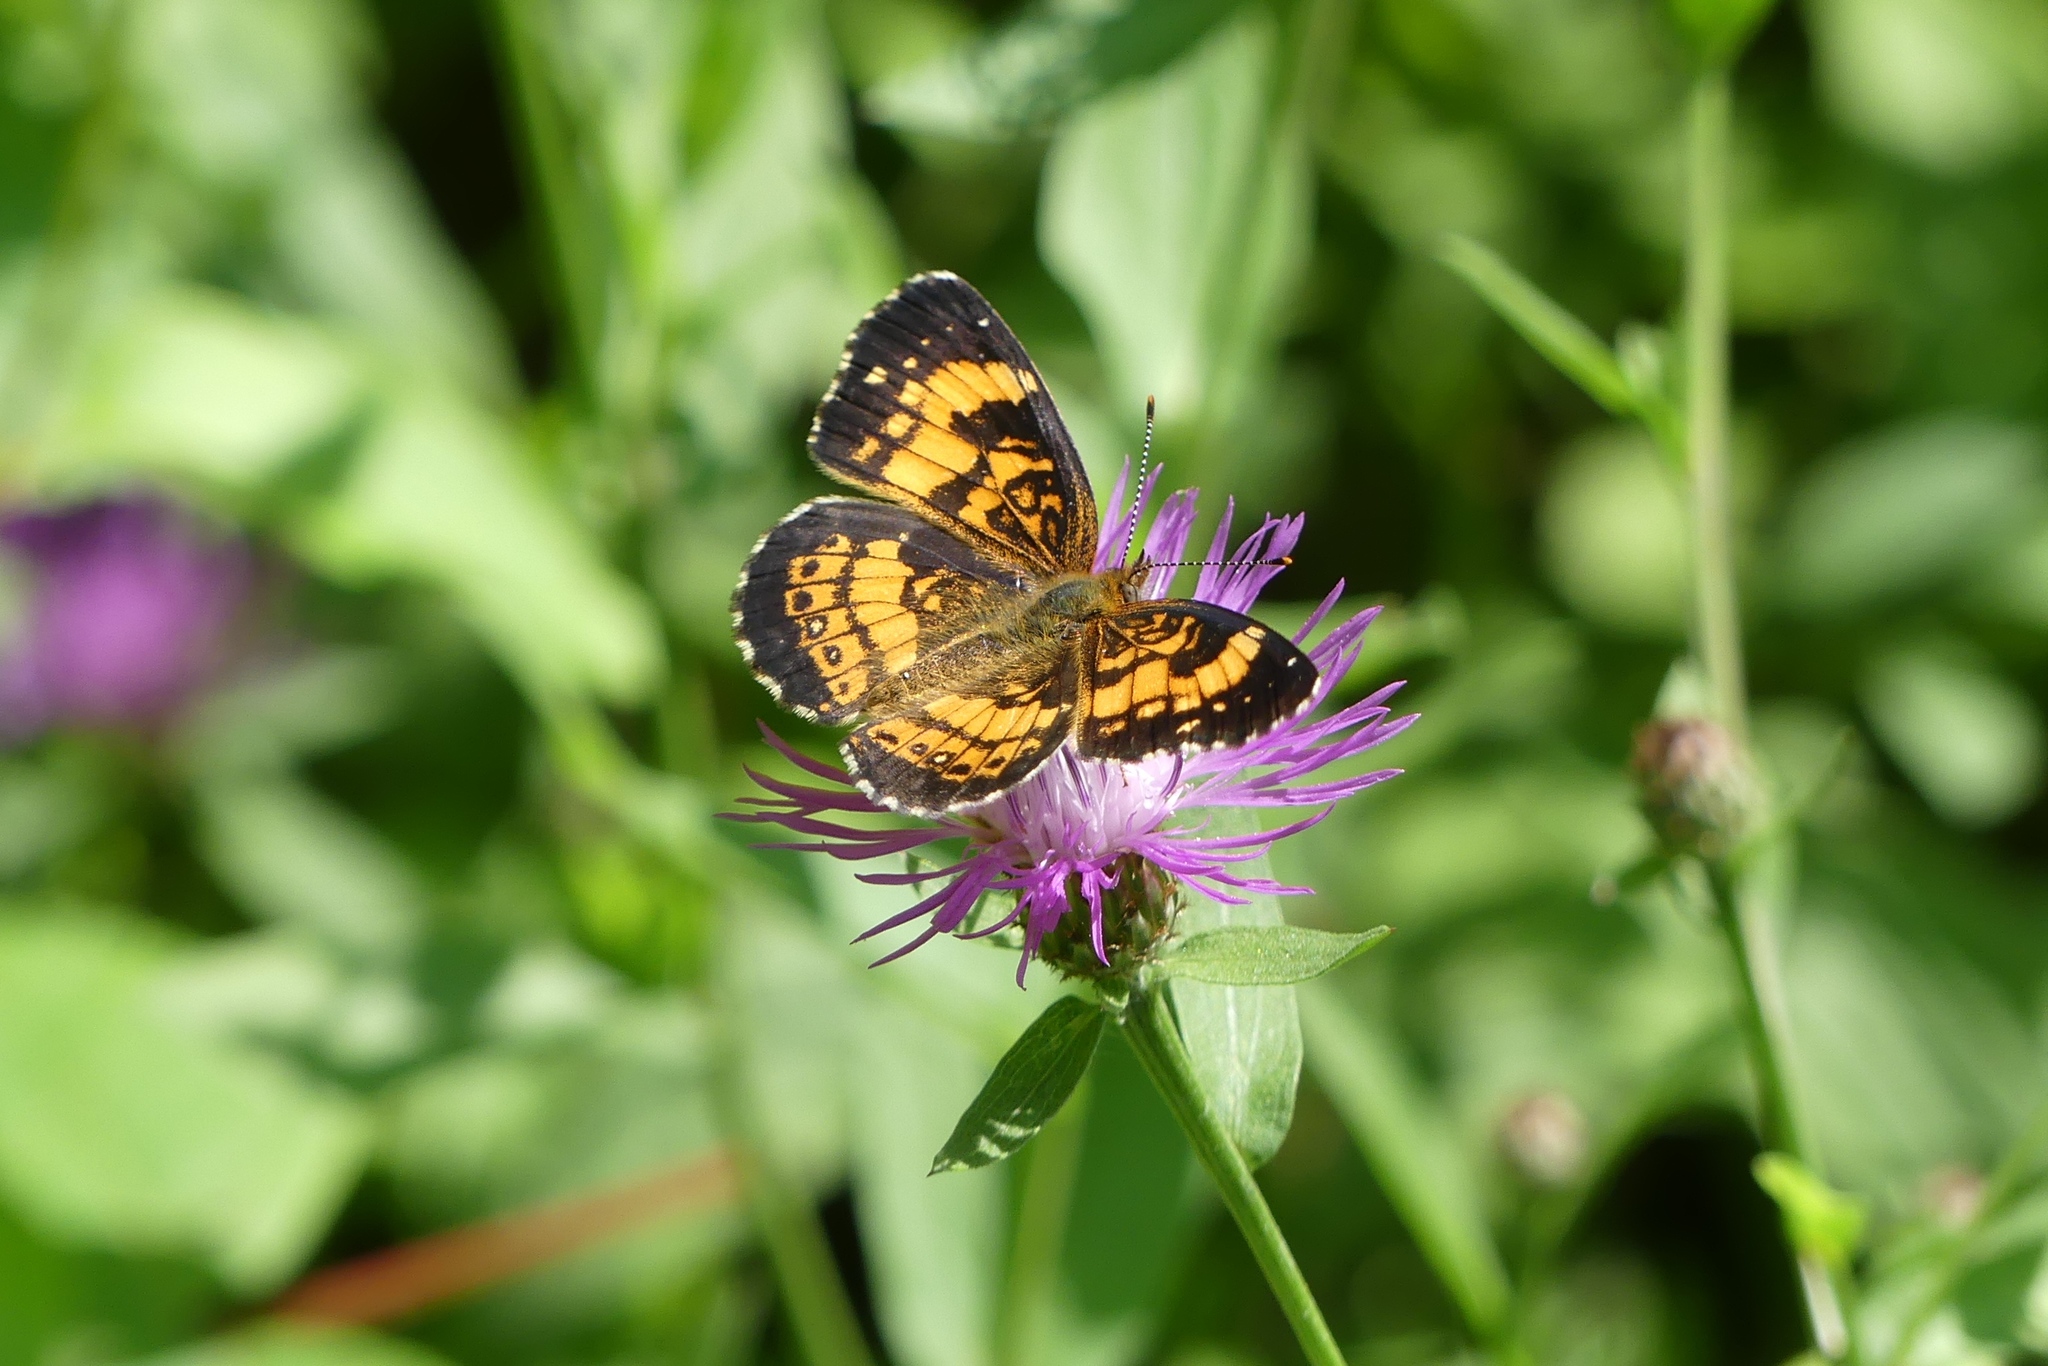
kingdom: Animalia
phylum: Arthropoda
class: Insecta
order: Lepidoptera
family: Nymphalidae
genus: Chlosyne
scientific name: Chlosyne nycteis
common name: Silvery checkerspot
